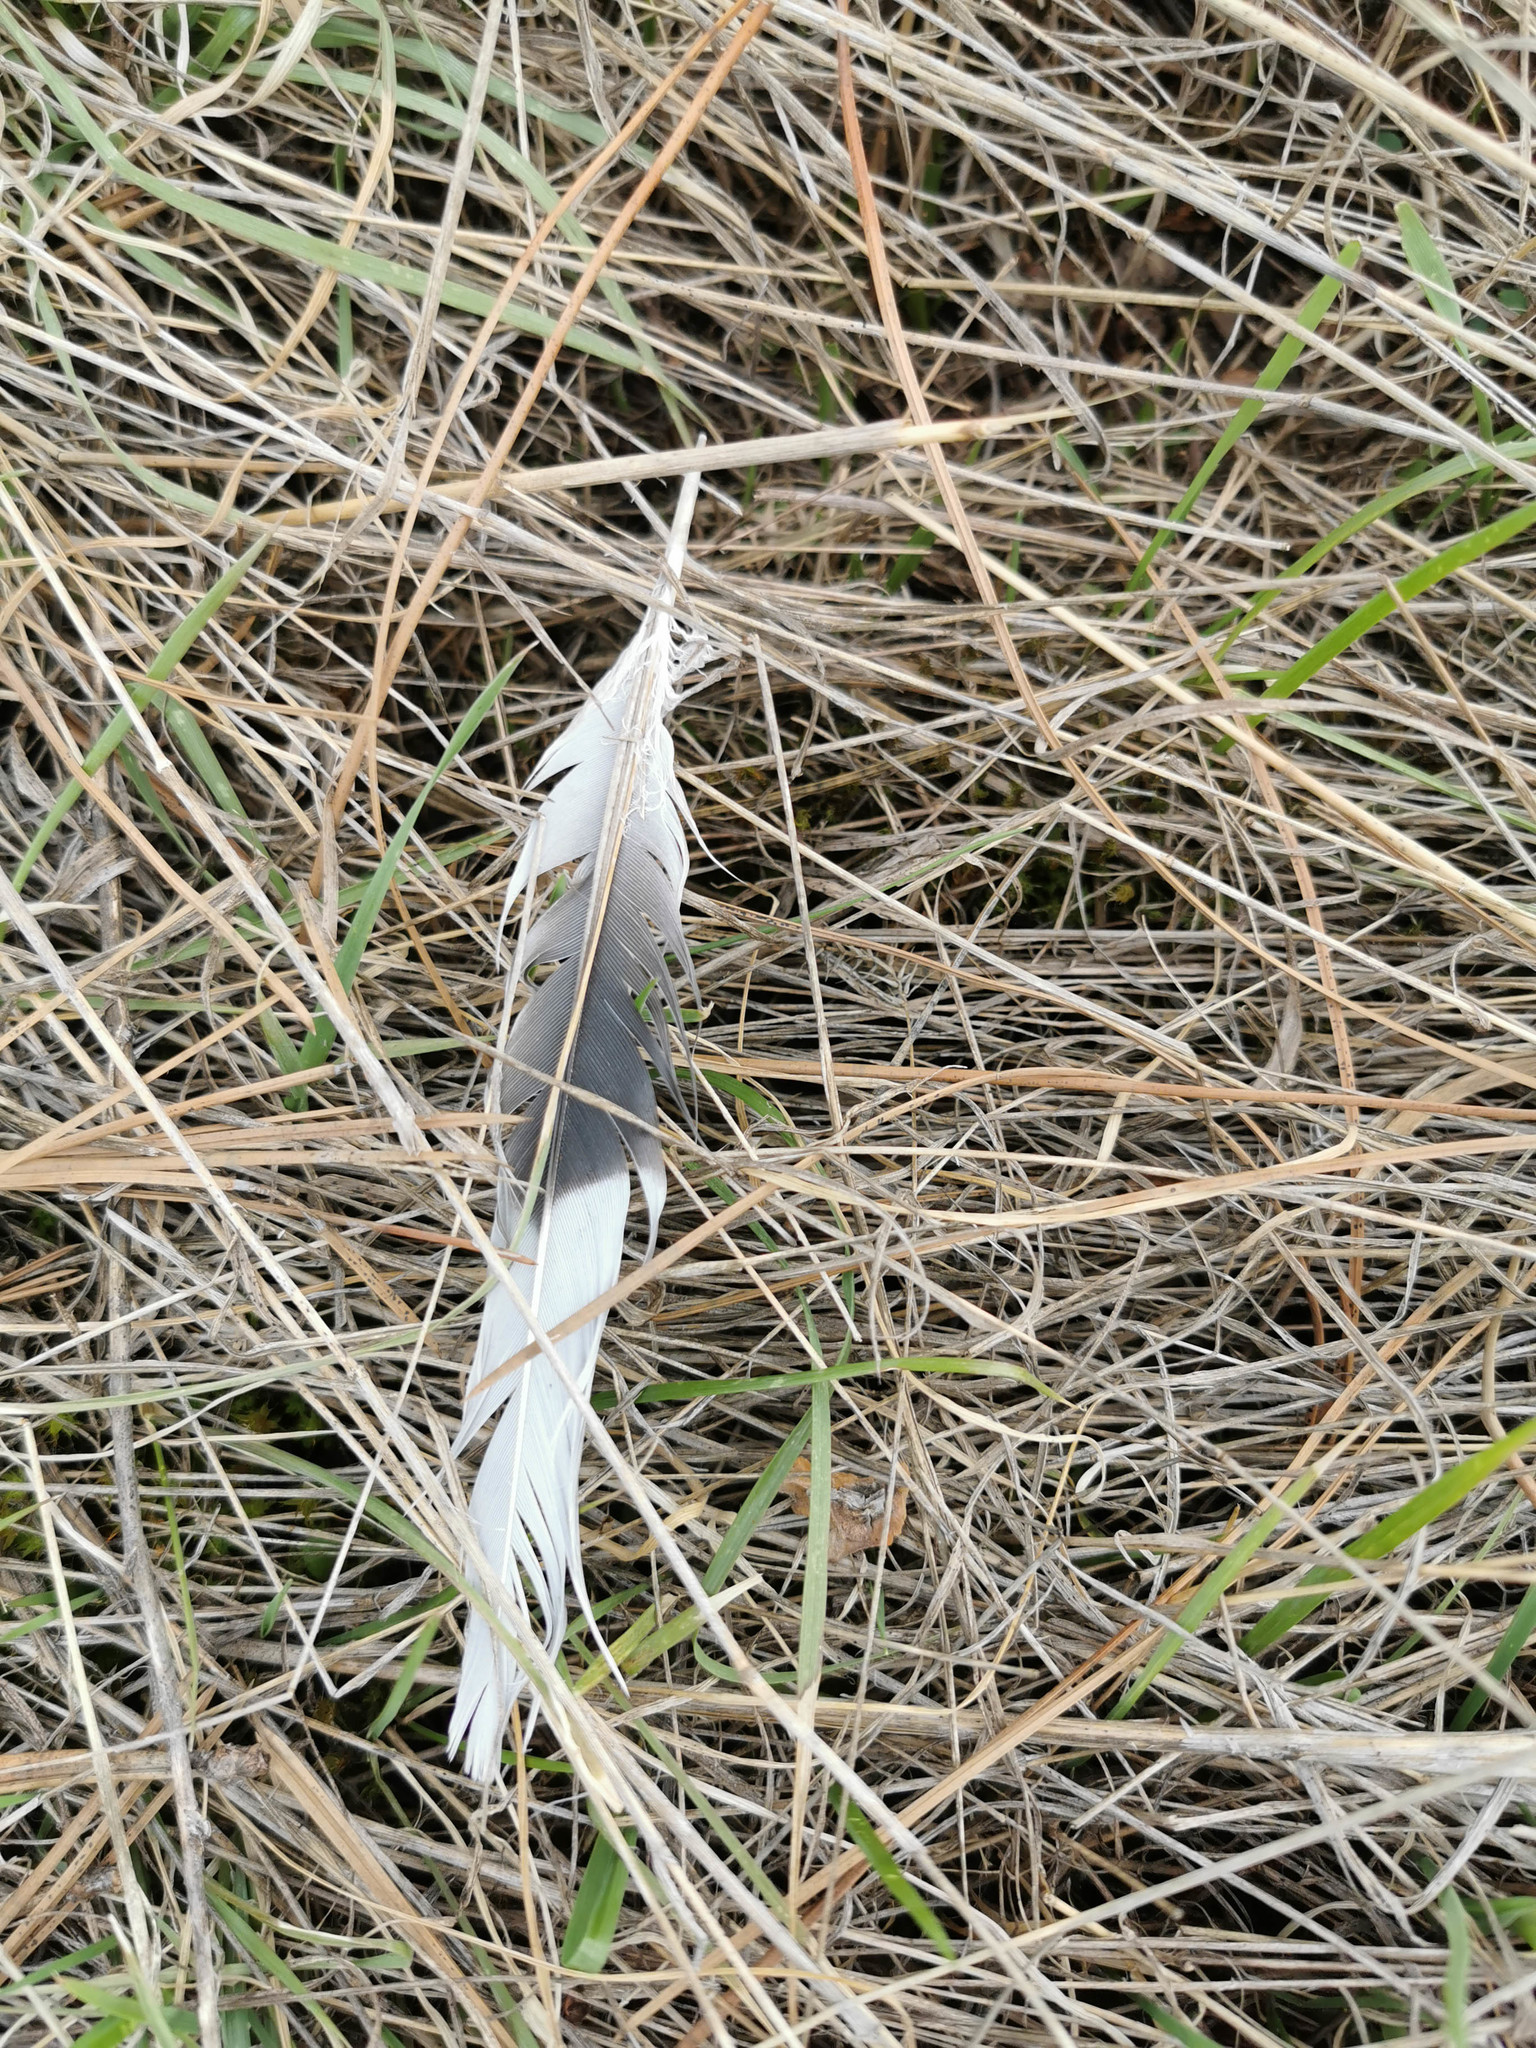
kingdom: Animalia
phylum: Chordata
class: Aves
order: Columbiformes
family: Columbidae
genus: Streptopelia
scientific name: Streptopelia decaocto
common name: Eurasian collared dove
